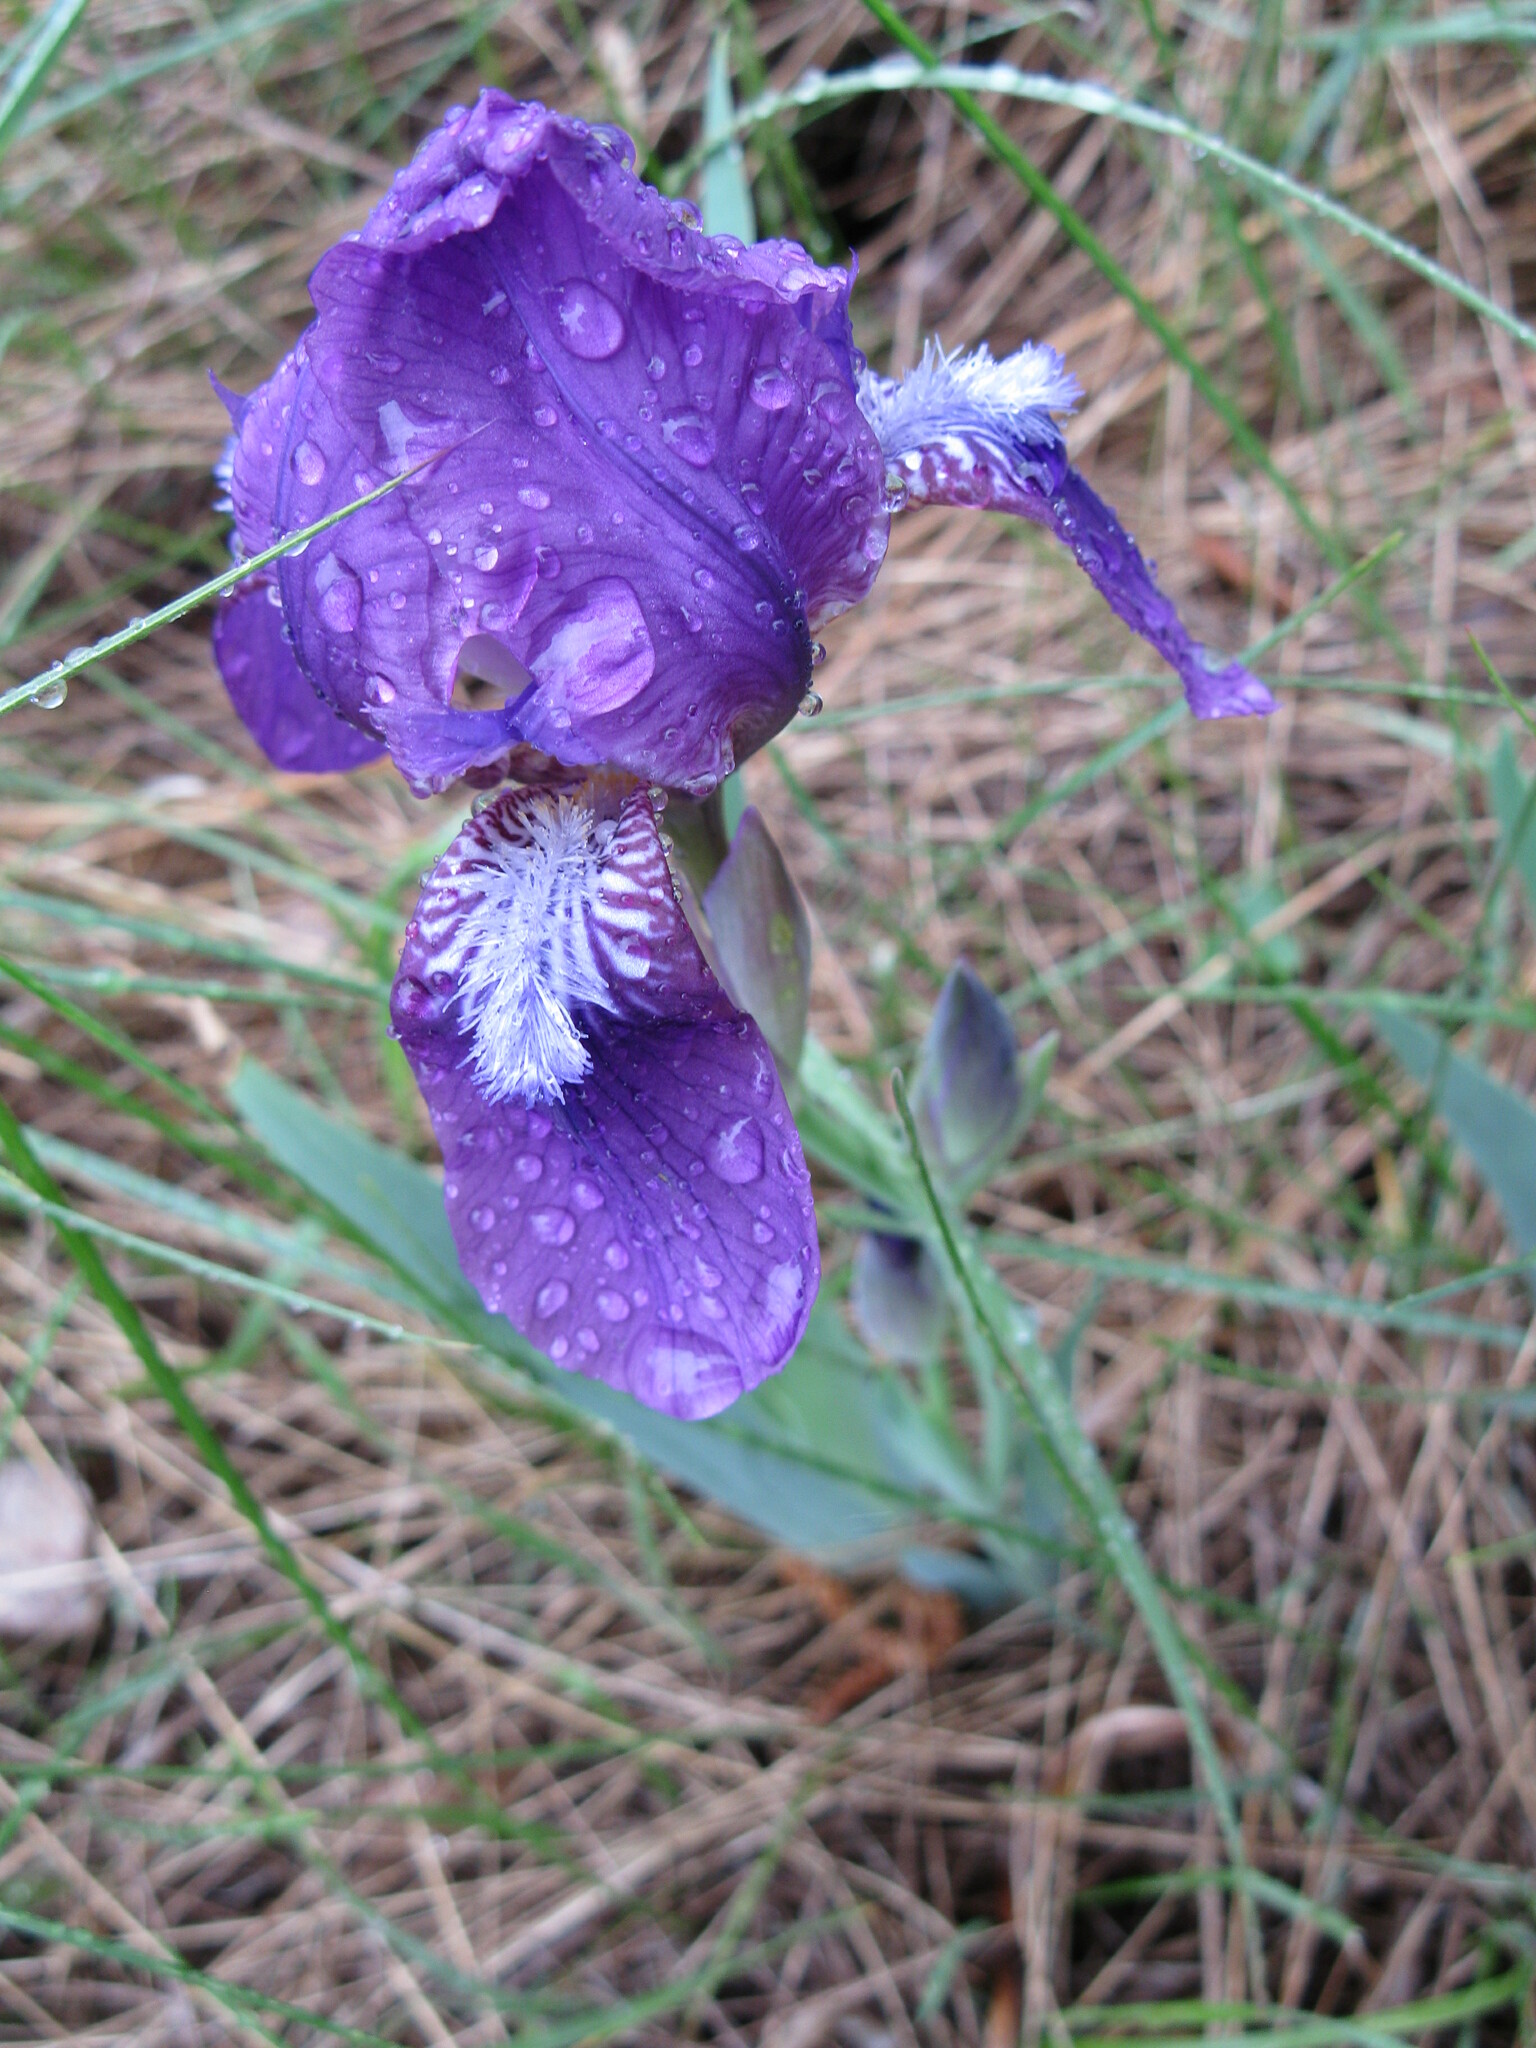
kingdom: Plantae
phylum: Tracheophyta
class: Liliopsida
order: Asparagales
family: Iridaceae
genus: Iris
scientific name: Iris aphylla
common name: Stool iris
